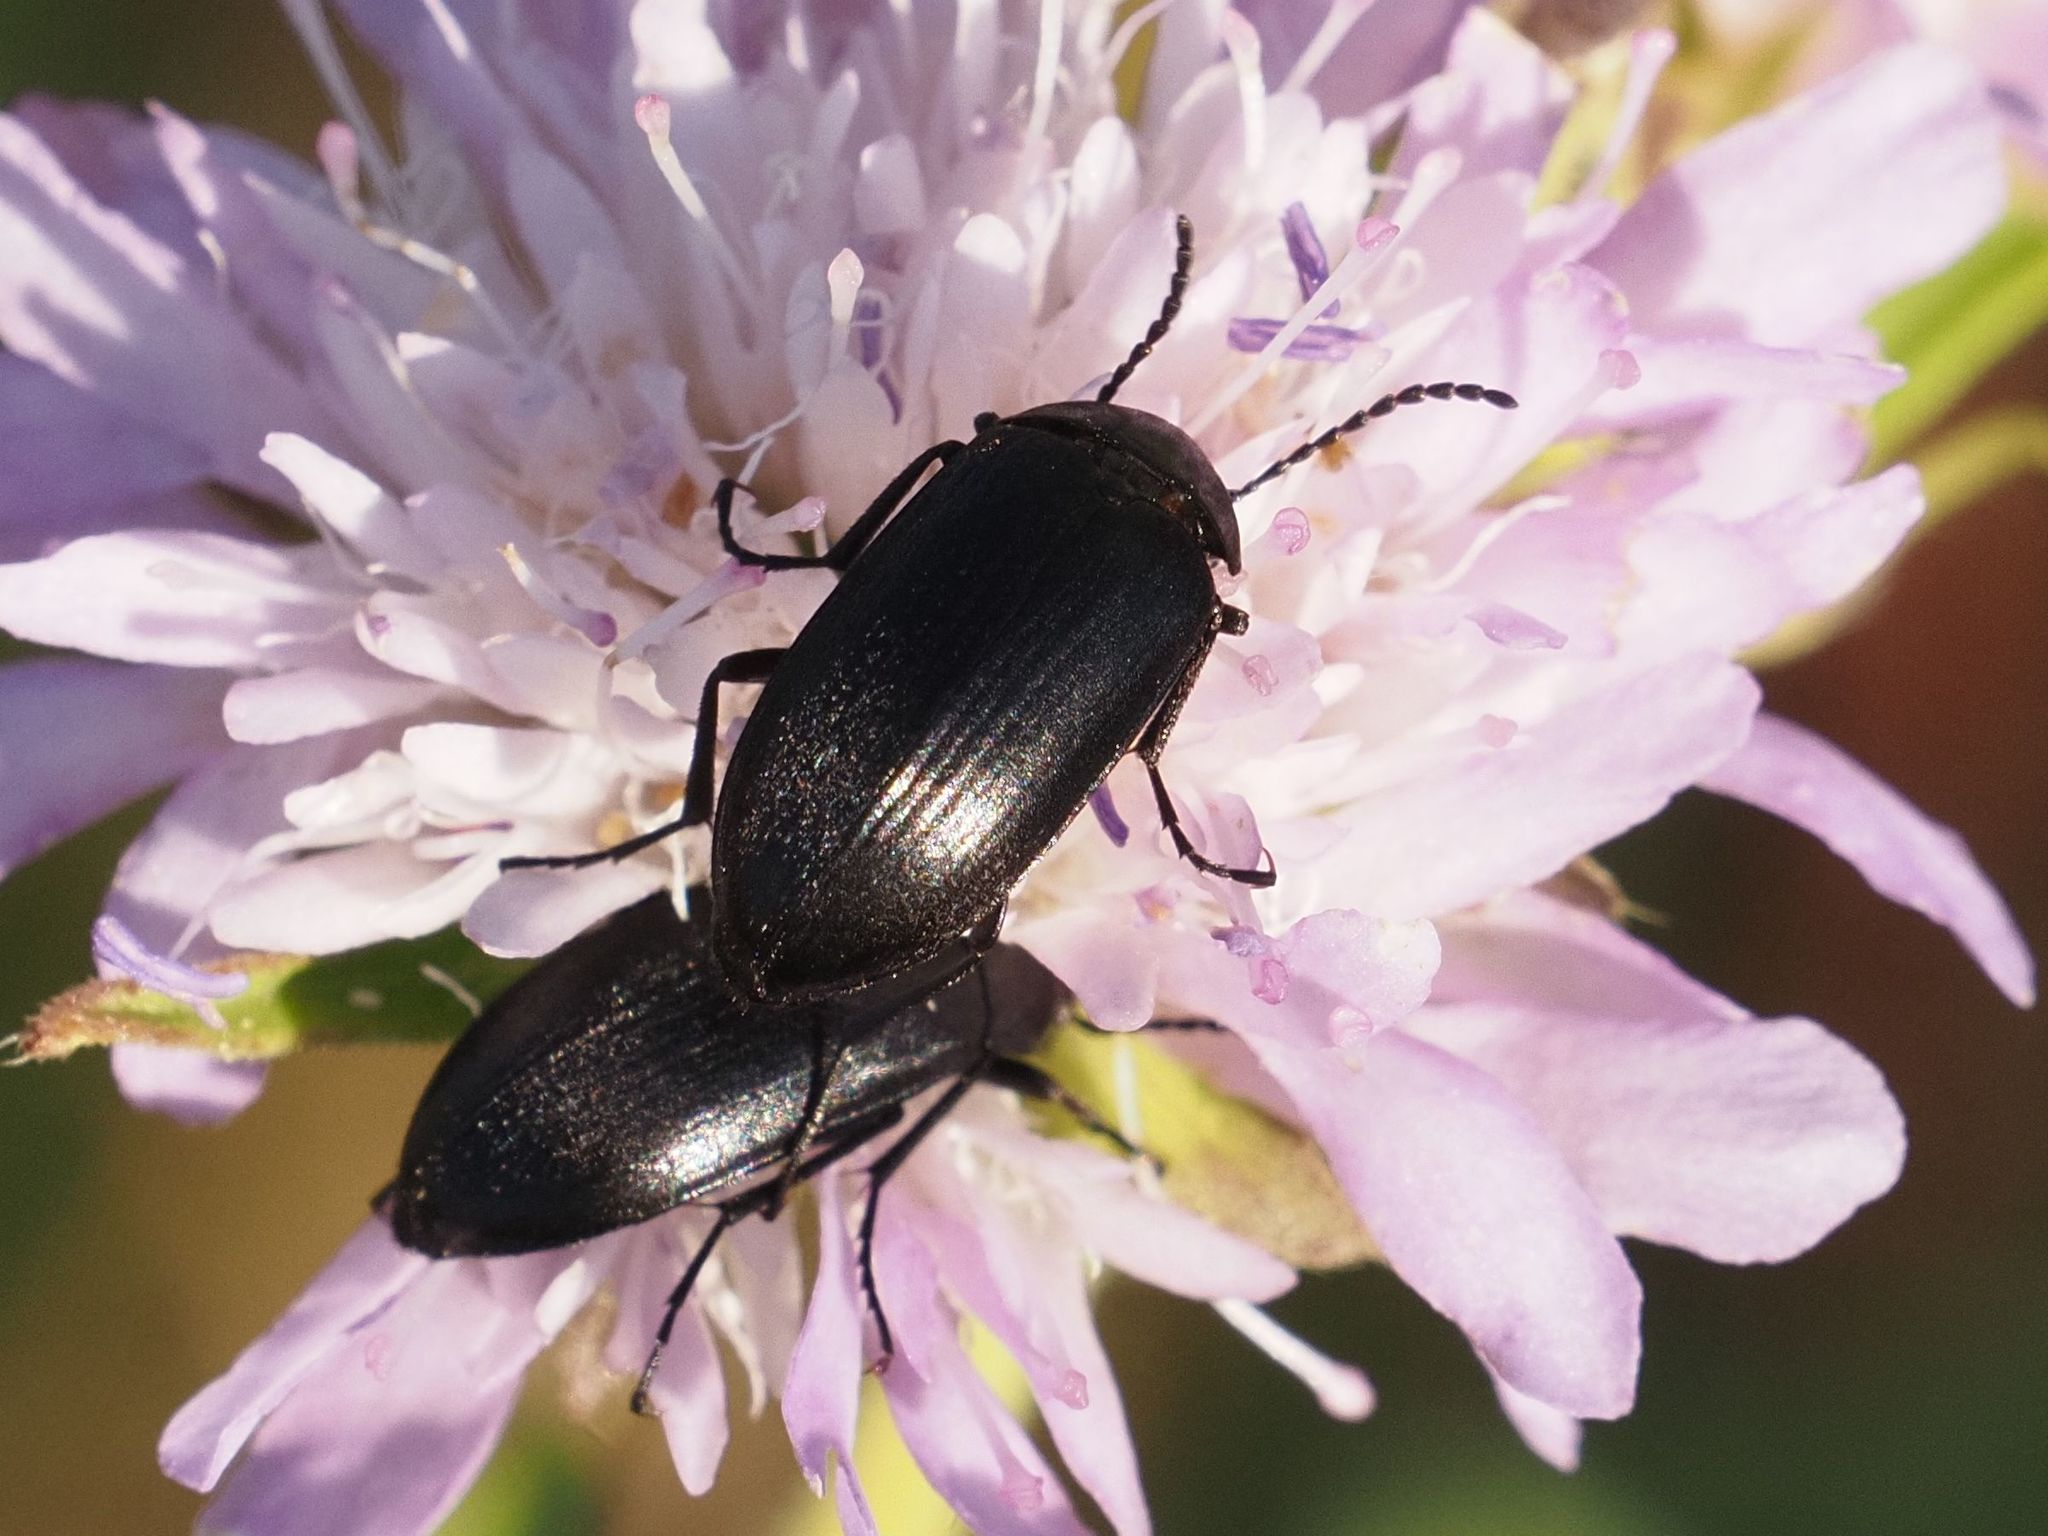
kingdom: Animalia
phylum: Arthropoda
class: Insecta
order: Coleoptera
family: Tenebrionidae
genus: Podonta
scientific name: Podonta nigrita
